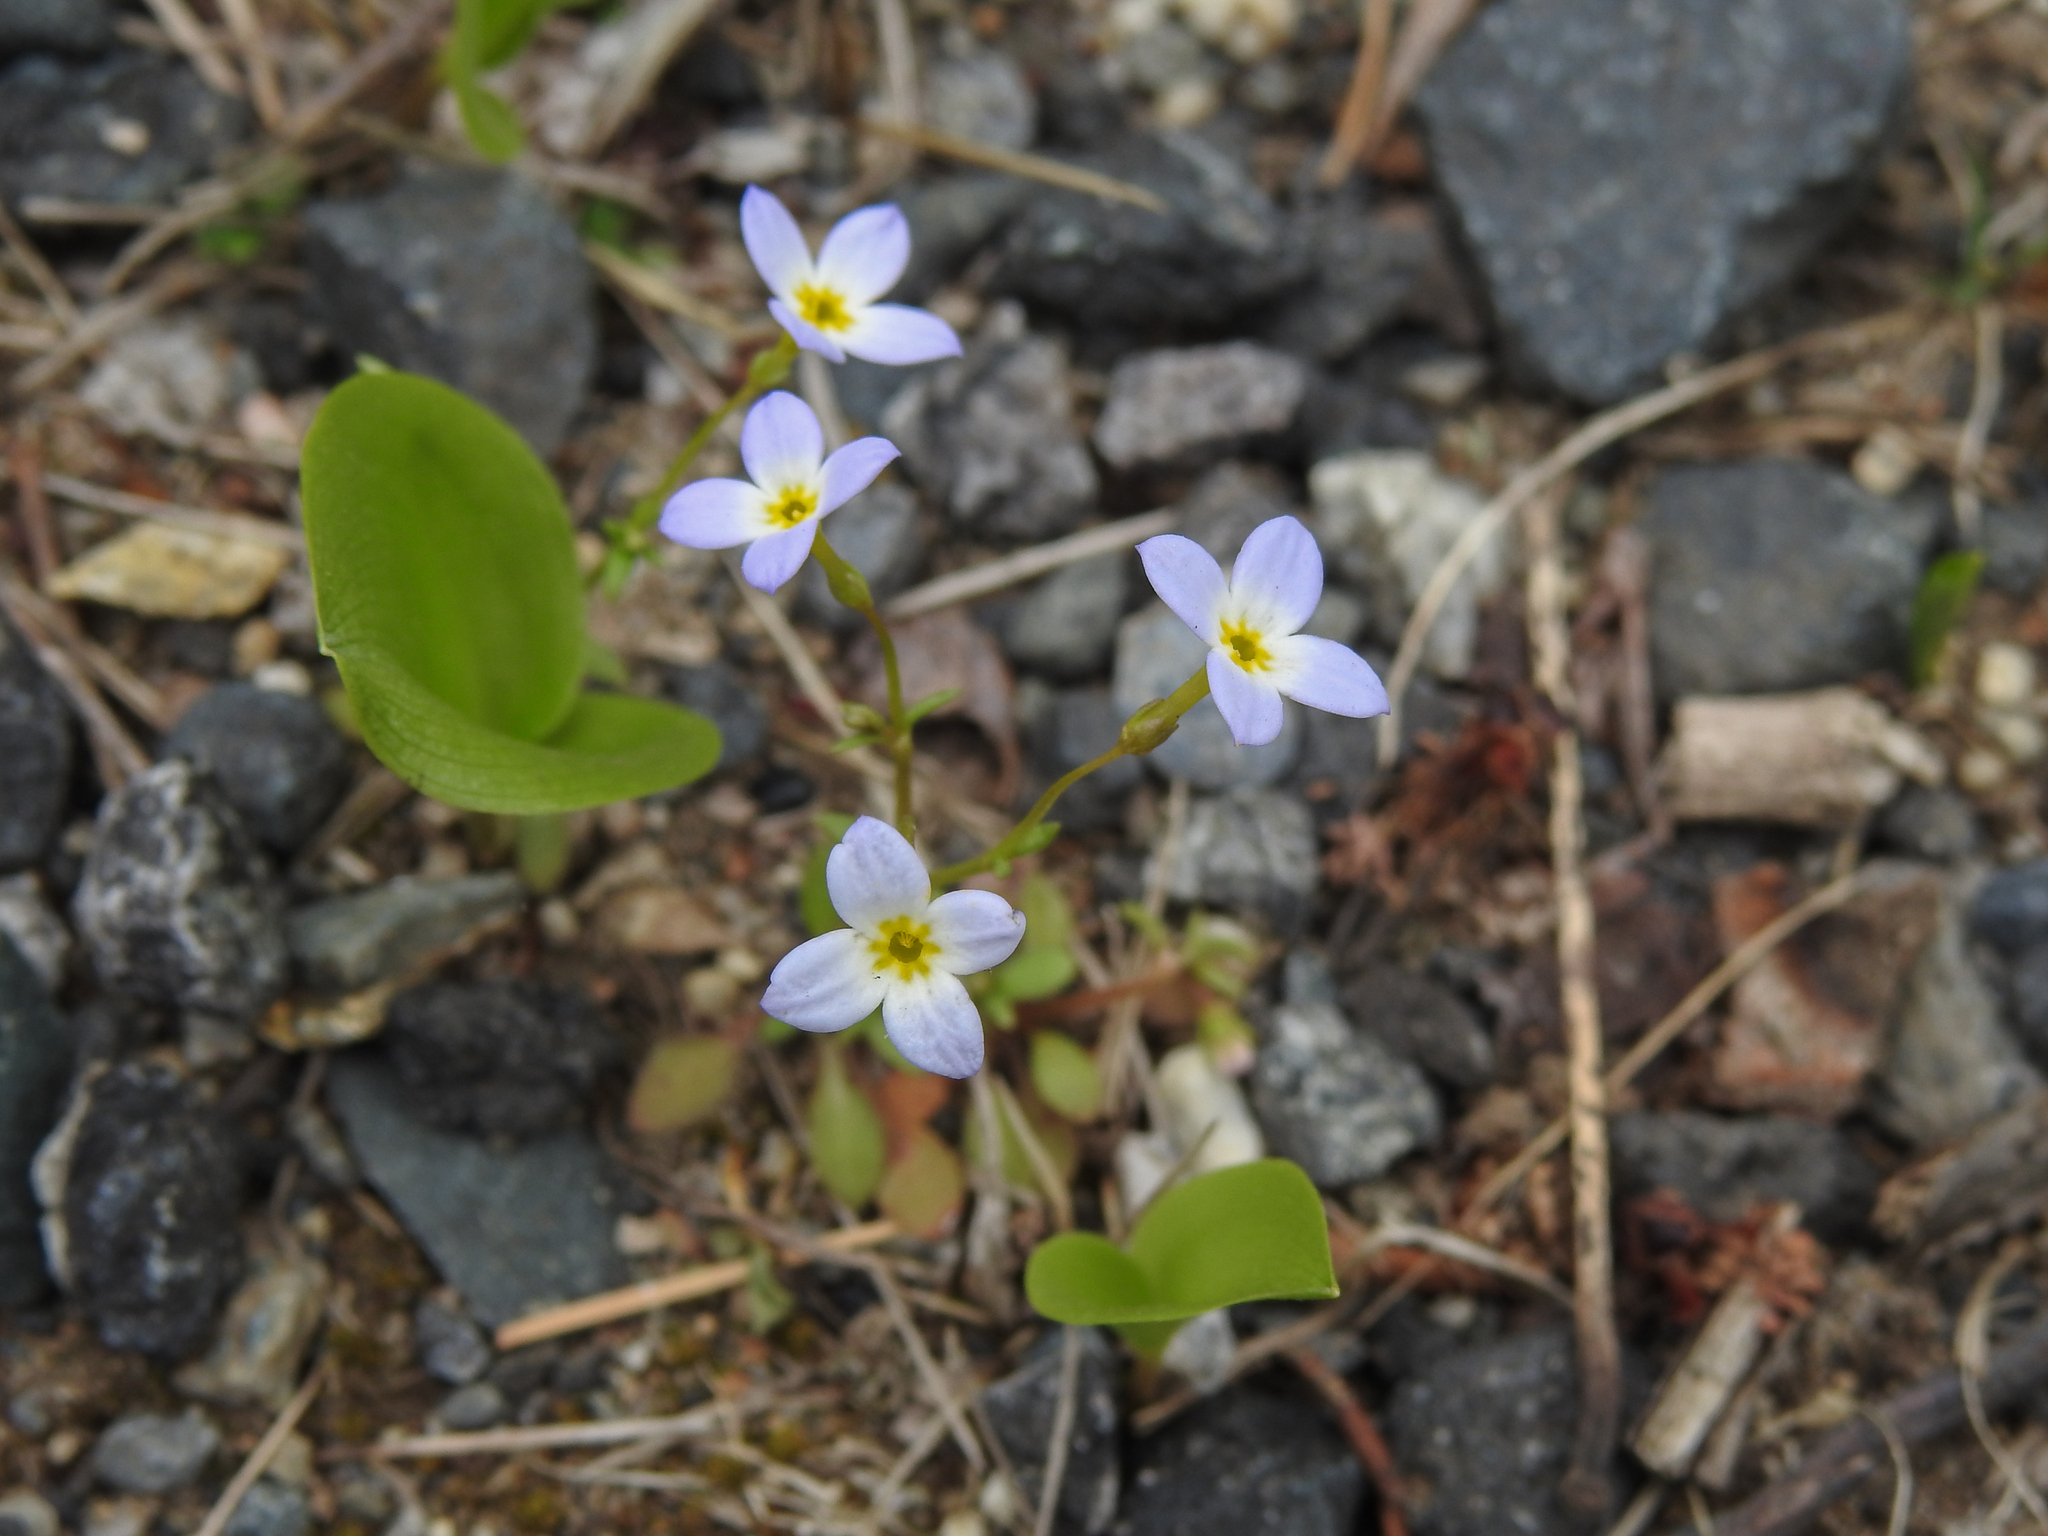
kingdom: Plantae
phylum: Tracheophyta
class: Magnoliopsida
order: Gentianales
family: Rubiaceae
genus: Houstonia
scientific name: Houstonia caerulea
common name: Bluets
